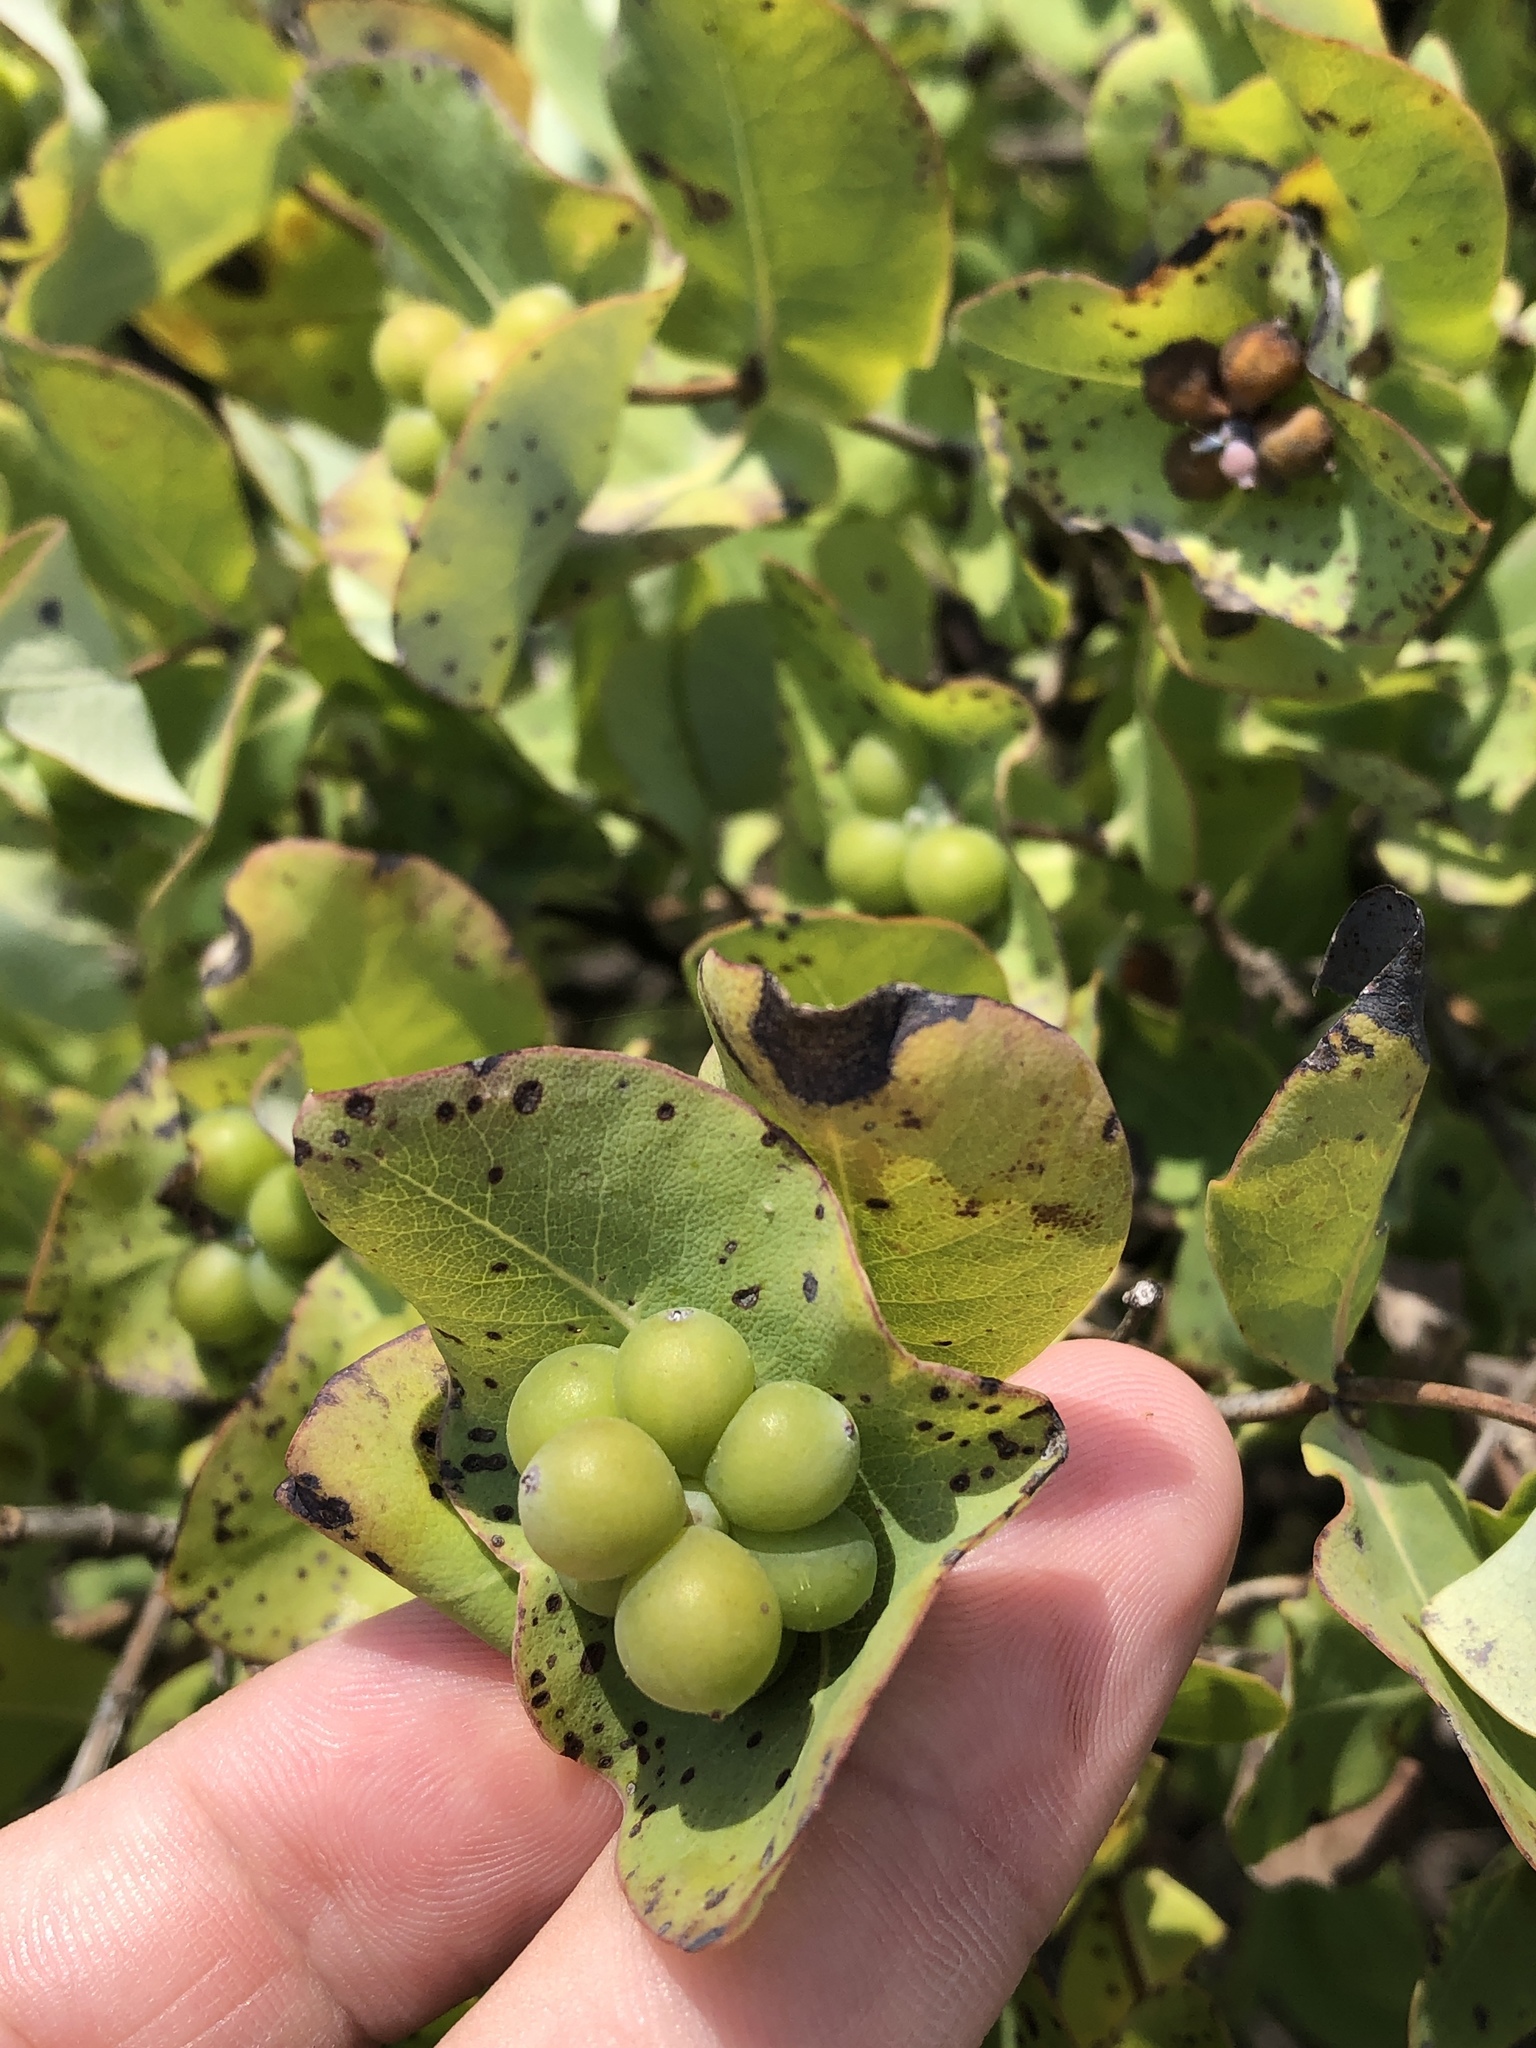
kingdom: Plantae
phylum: Tracheophyta
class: Magnoliopsida
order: Dipsacales
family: Caprifoliaceae
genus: Lonicera
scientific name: Lonicera albiflora
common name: White honeysuckle
